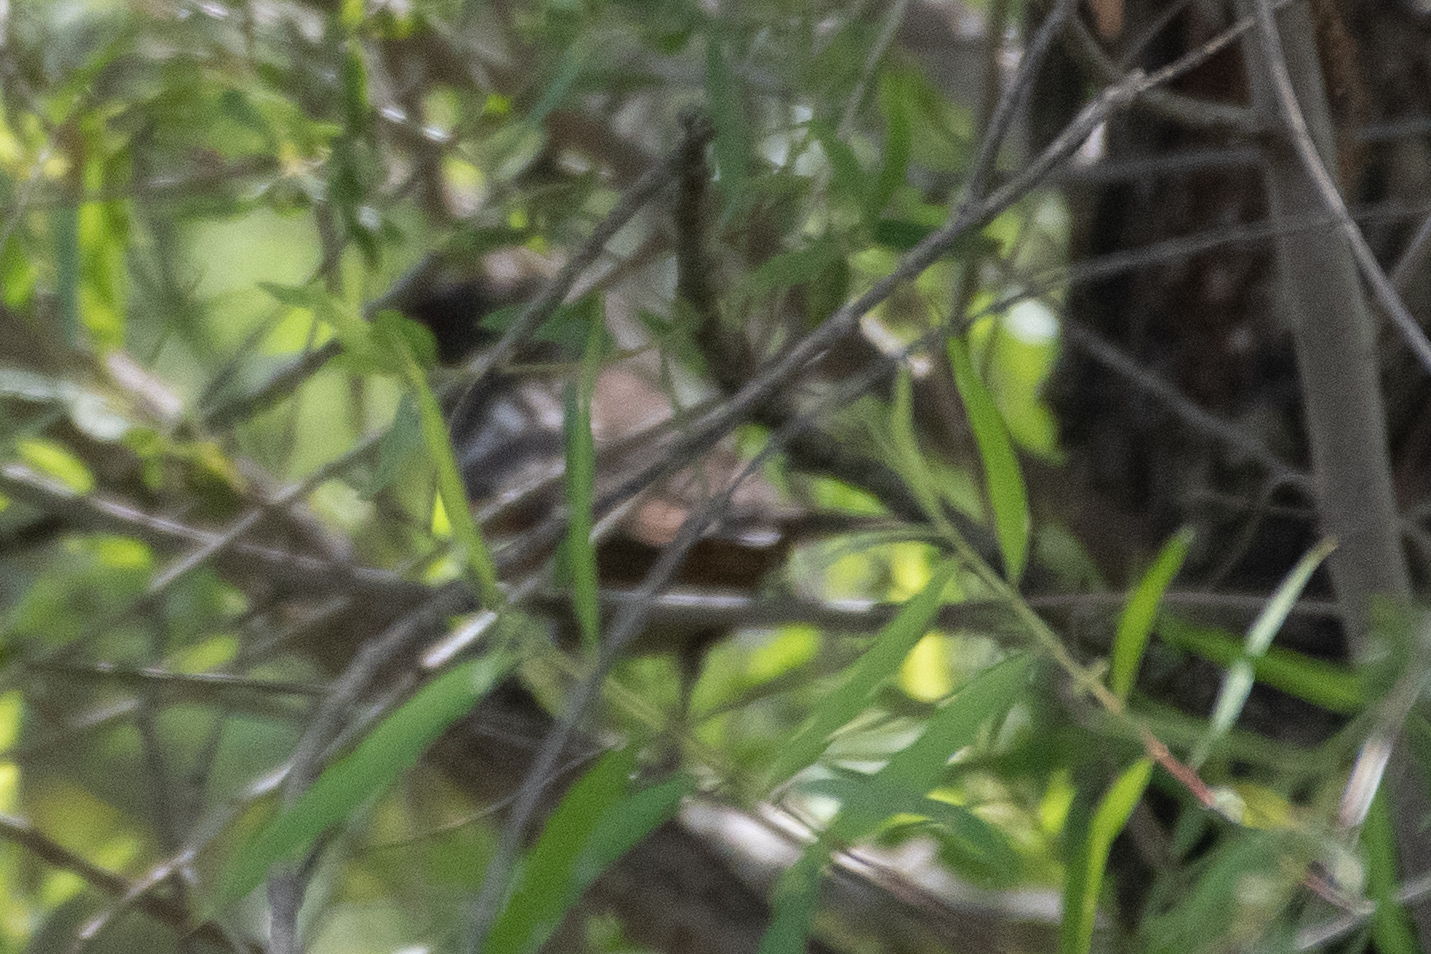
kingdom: Animalia
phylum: Chordata
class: Aves
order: Passeriformes
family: Passerellidae
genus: Pipilo
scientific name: Pipilo maculatus
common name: Spotted towhee
